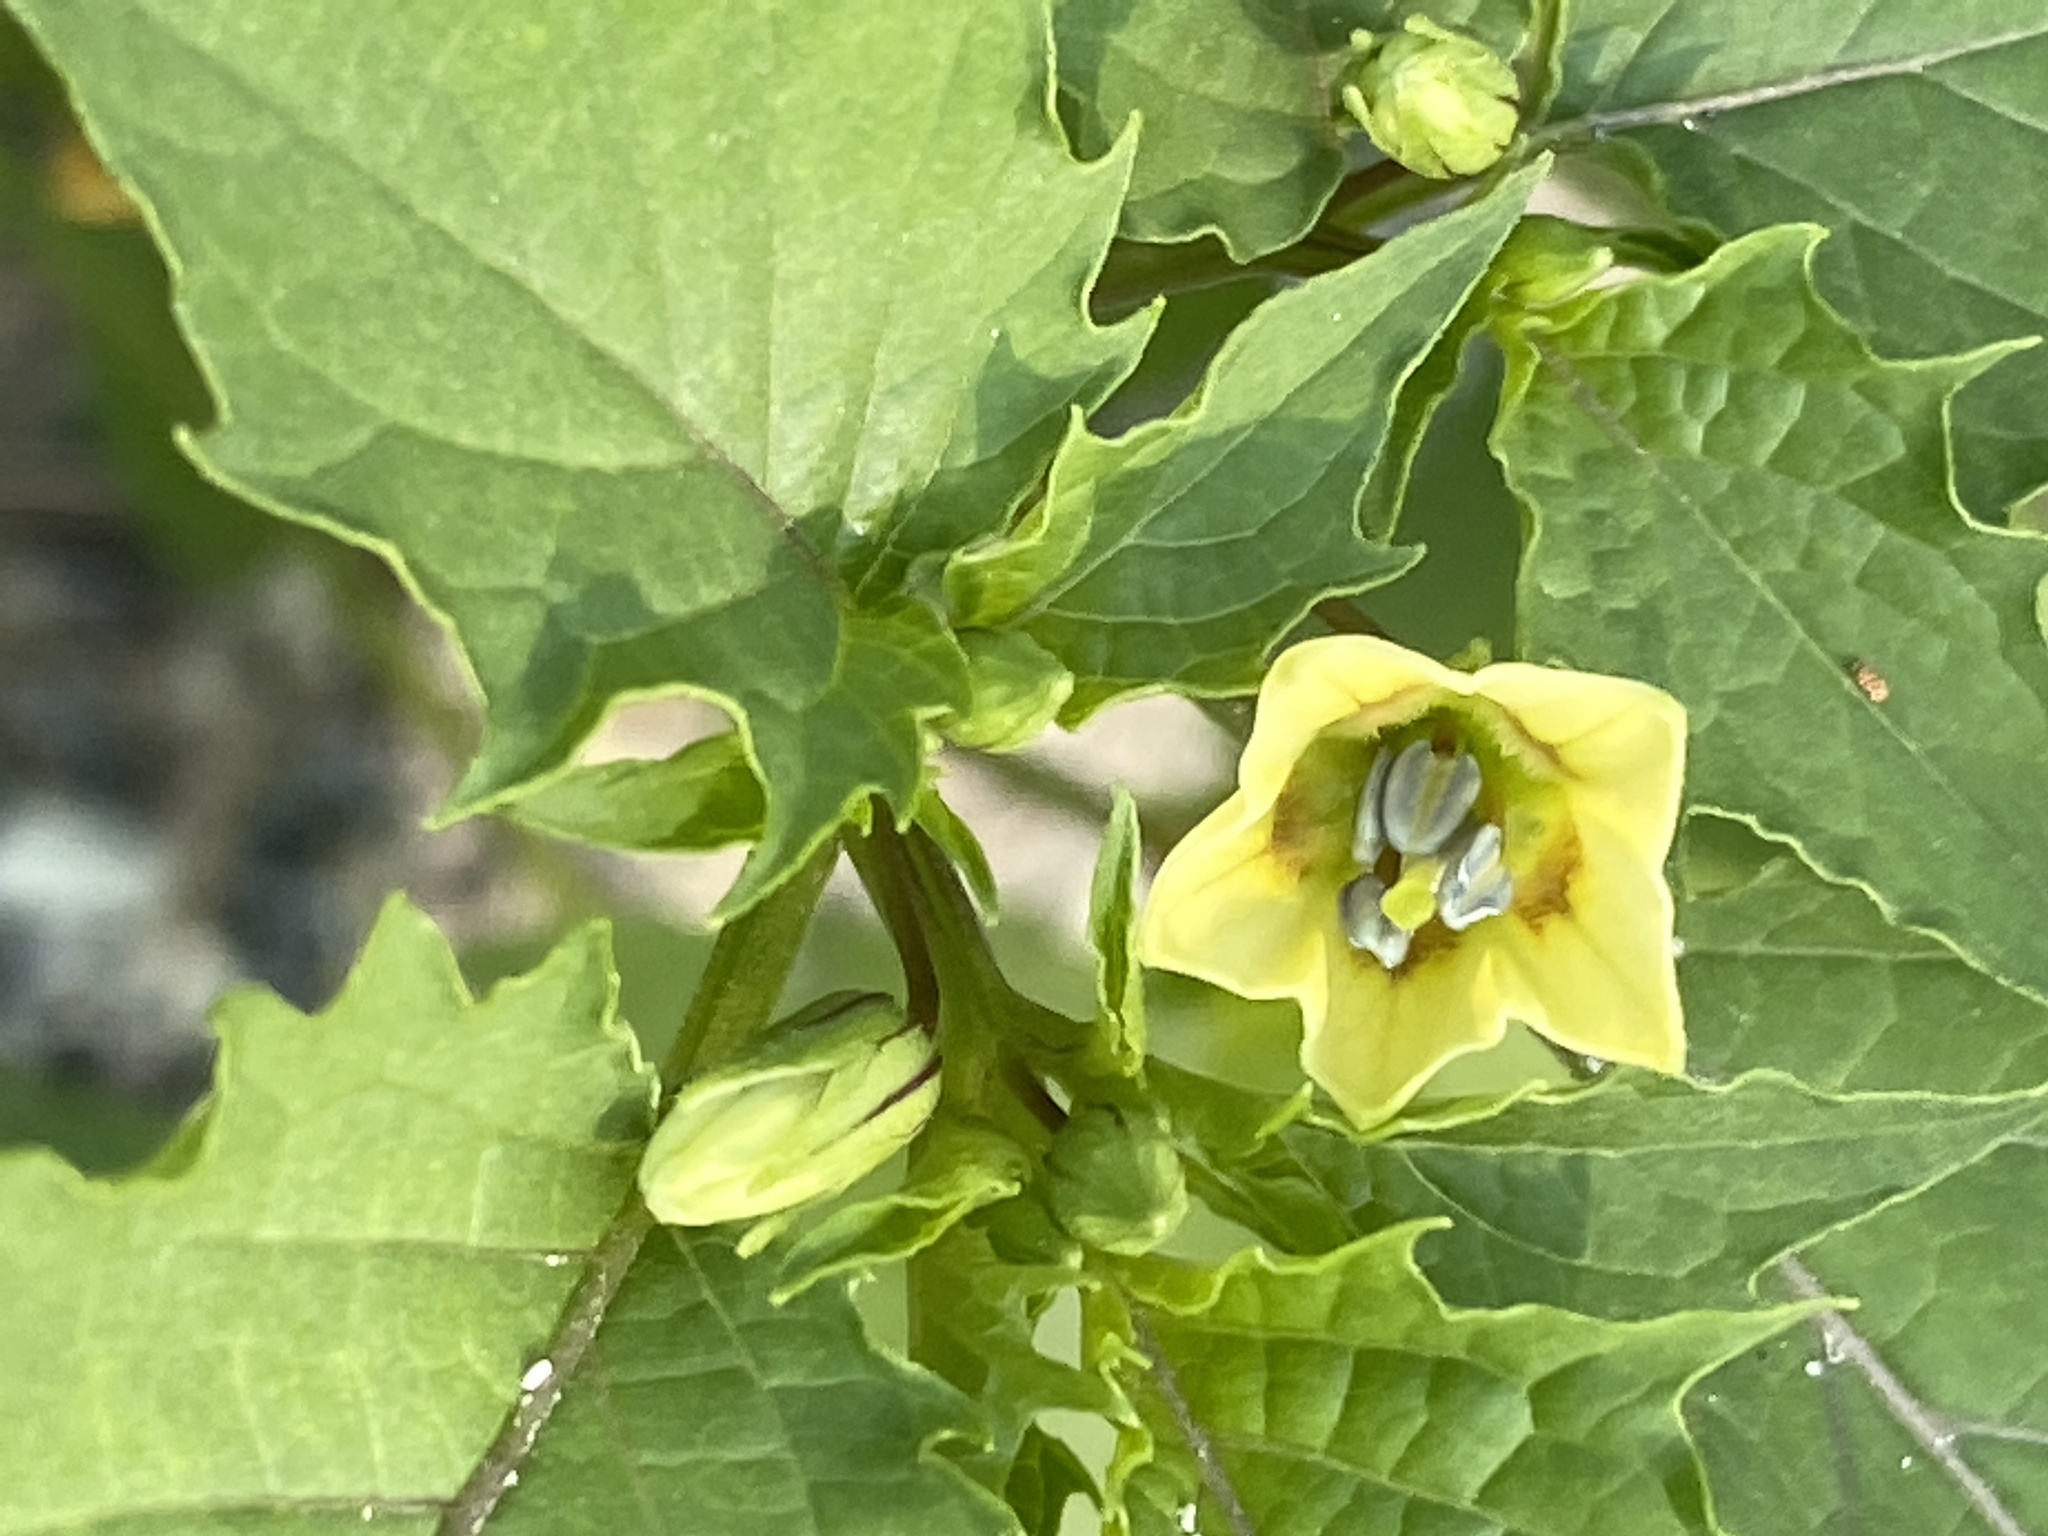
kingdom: Plantae
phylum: Tracheophyta
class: Magnoliopsida
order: Solanales
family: Solanaceae
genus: Physalis
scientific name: Physalis angulata
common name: Angular winter-cherry
